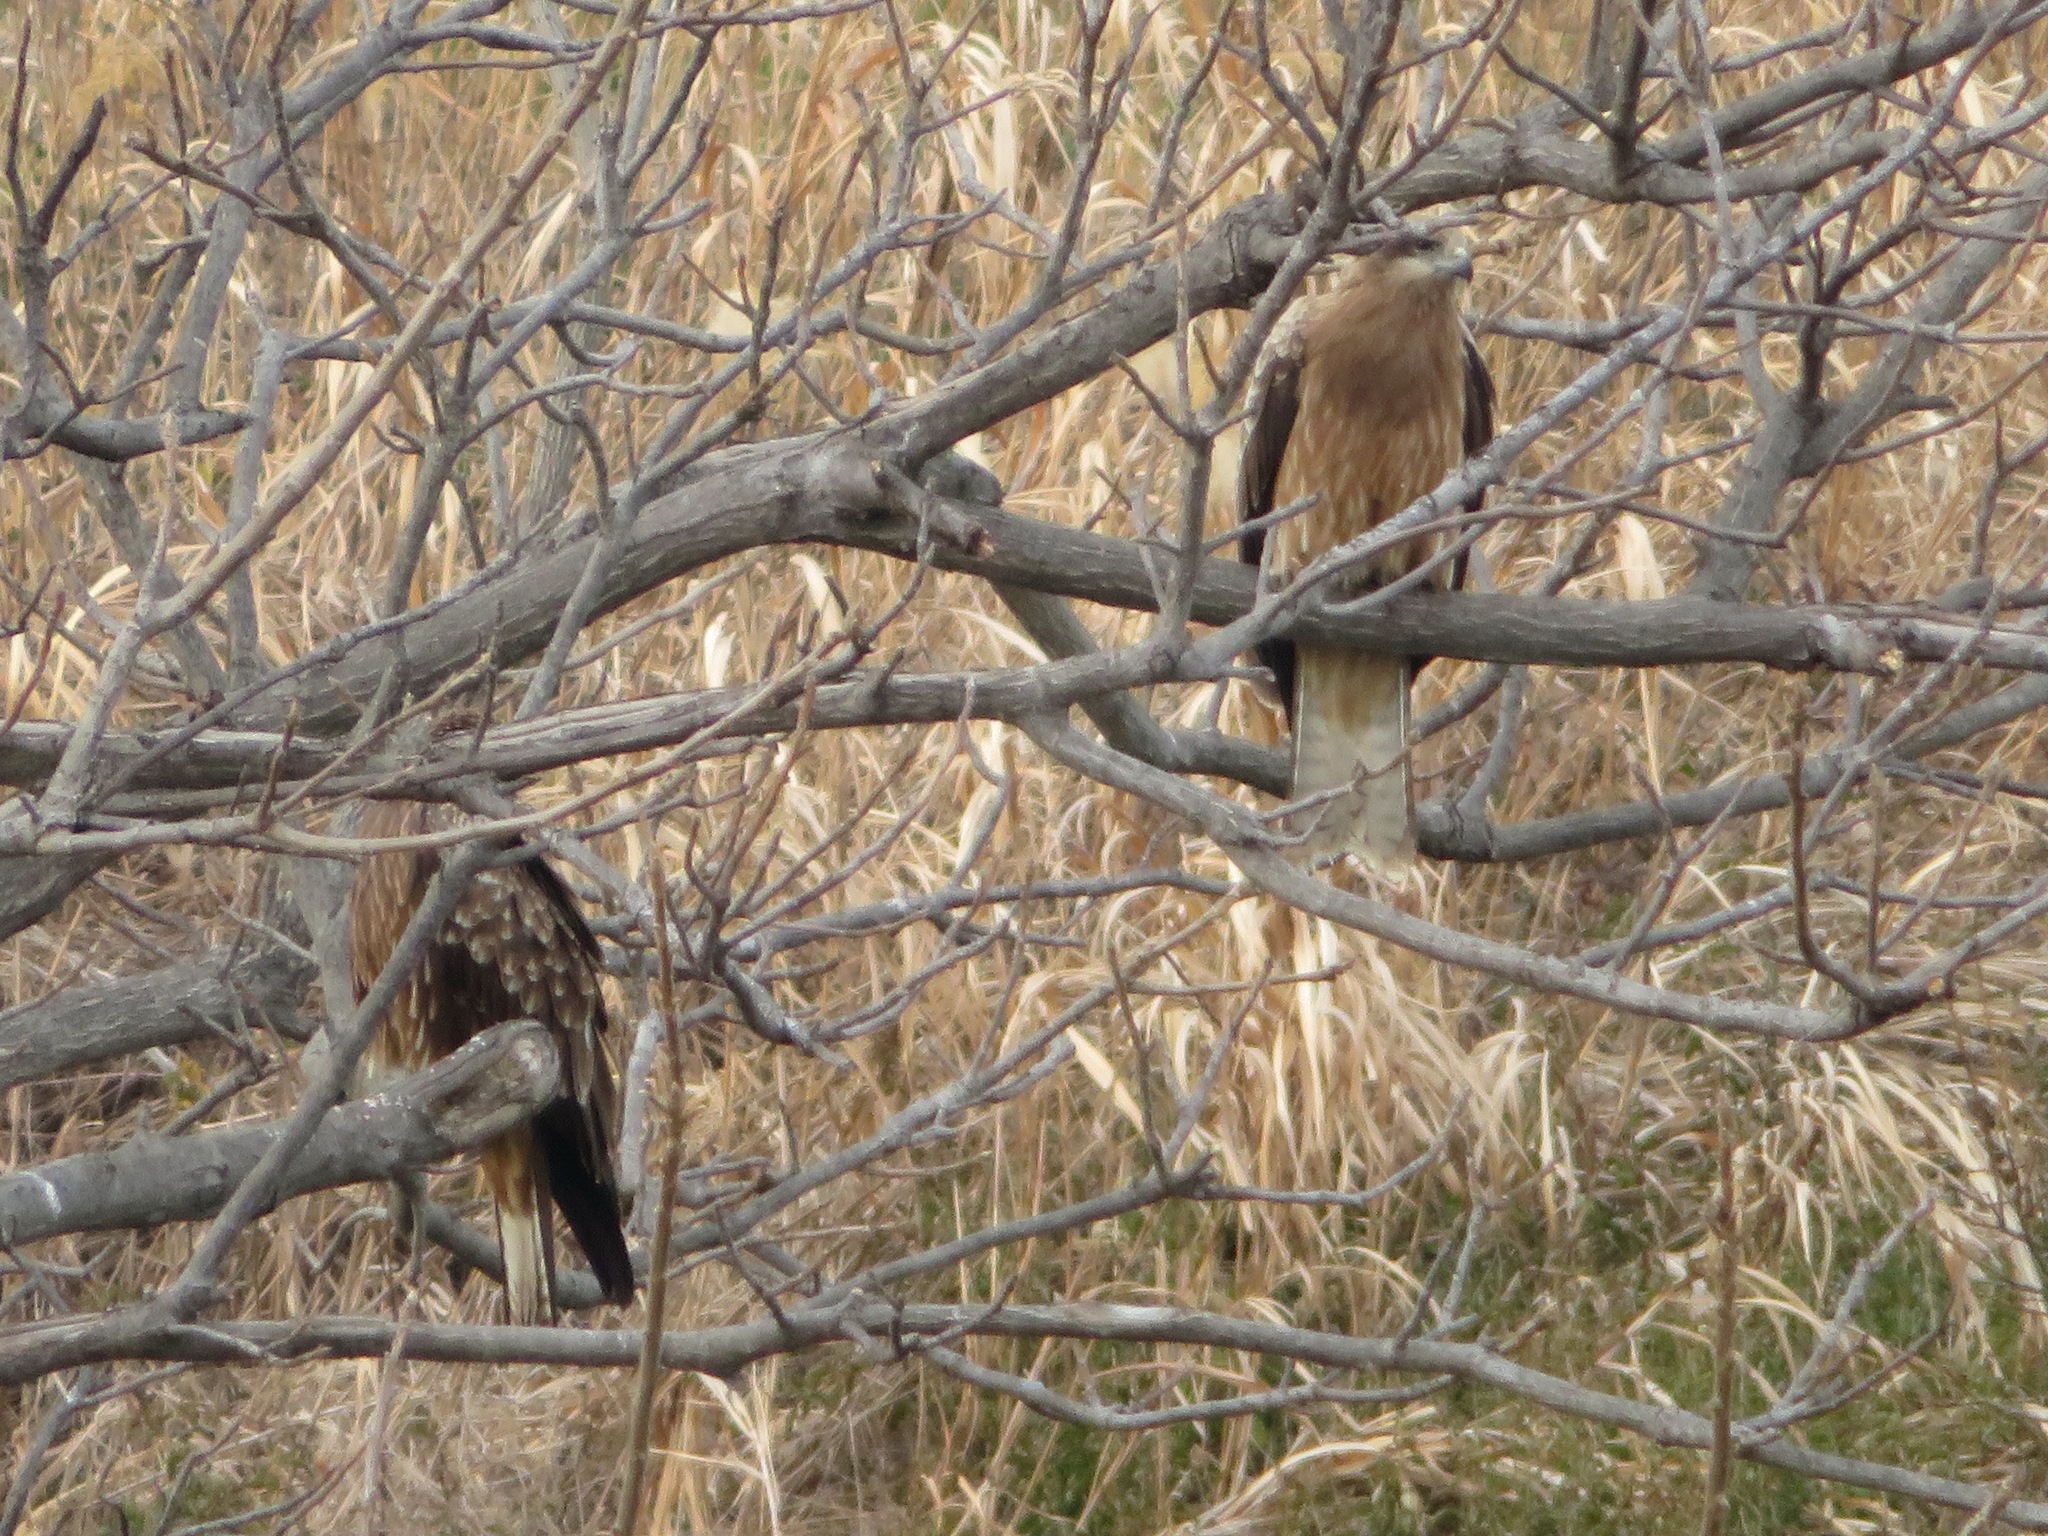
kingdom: Animalia
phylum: Chordata
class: Aves
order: Accipitriformes
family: Accipitridae
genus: Milvus
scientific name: Milvus migrans
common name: Black kite
